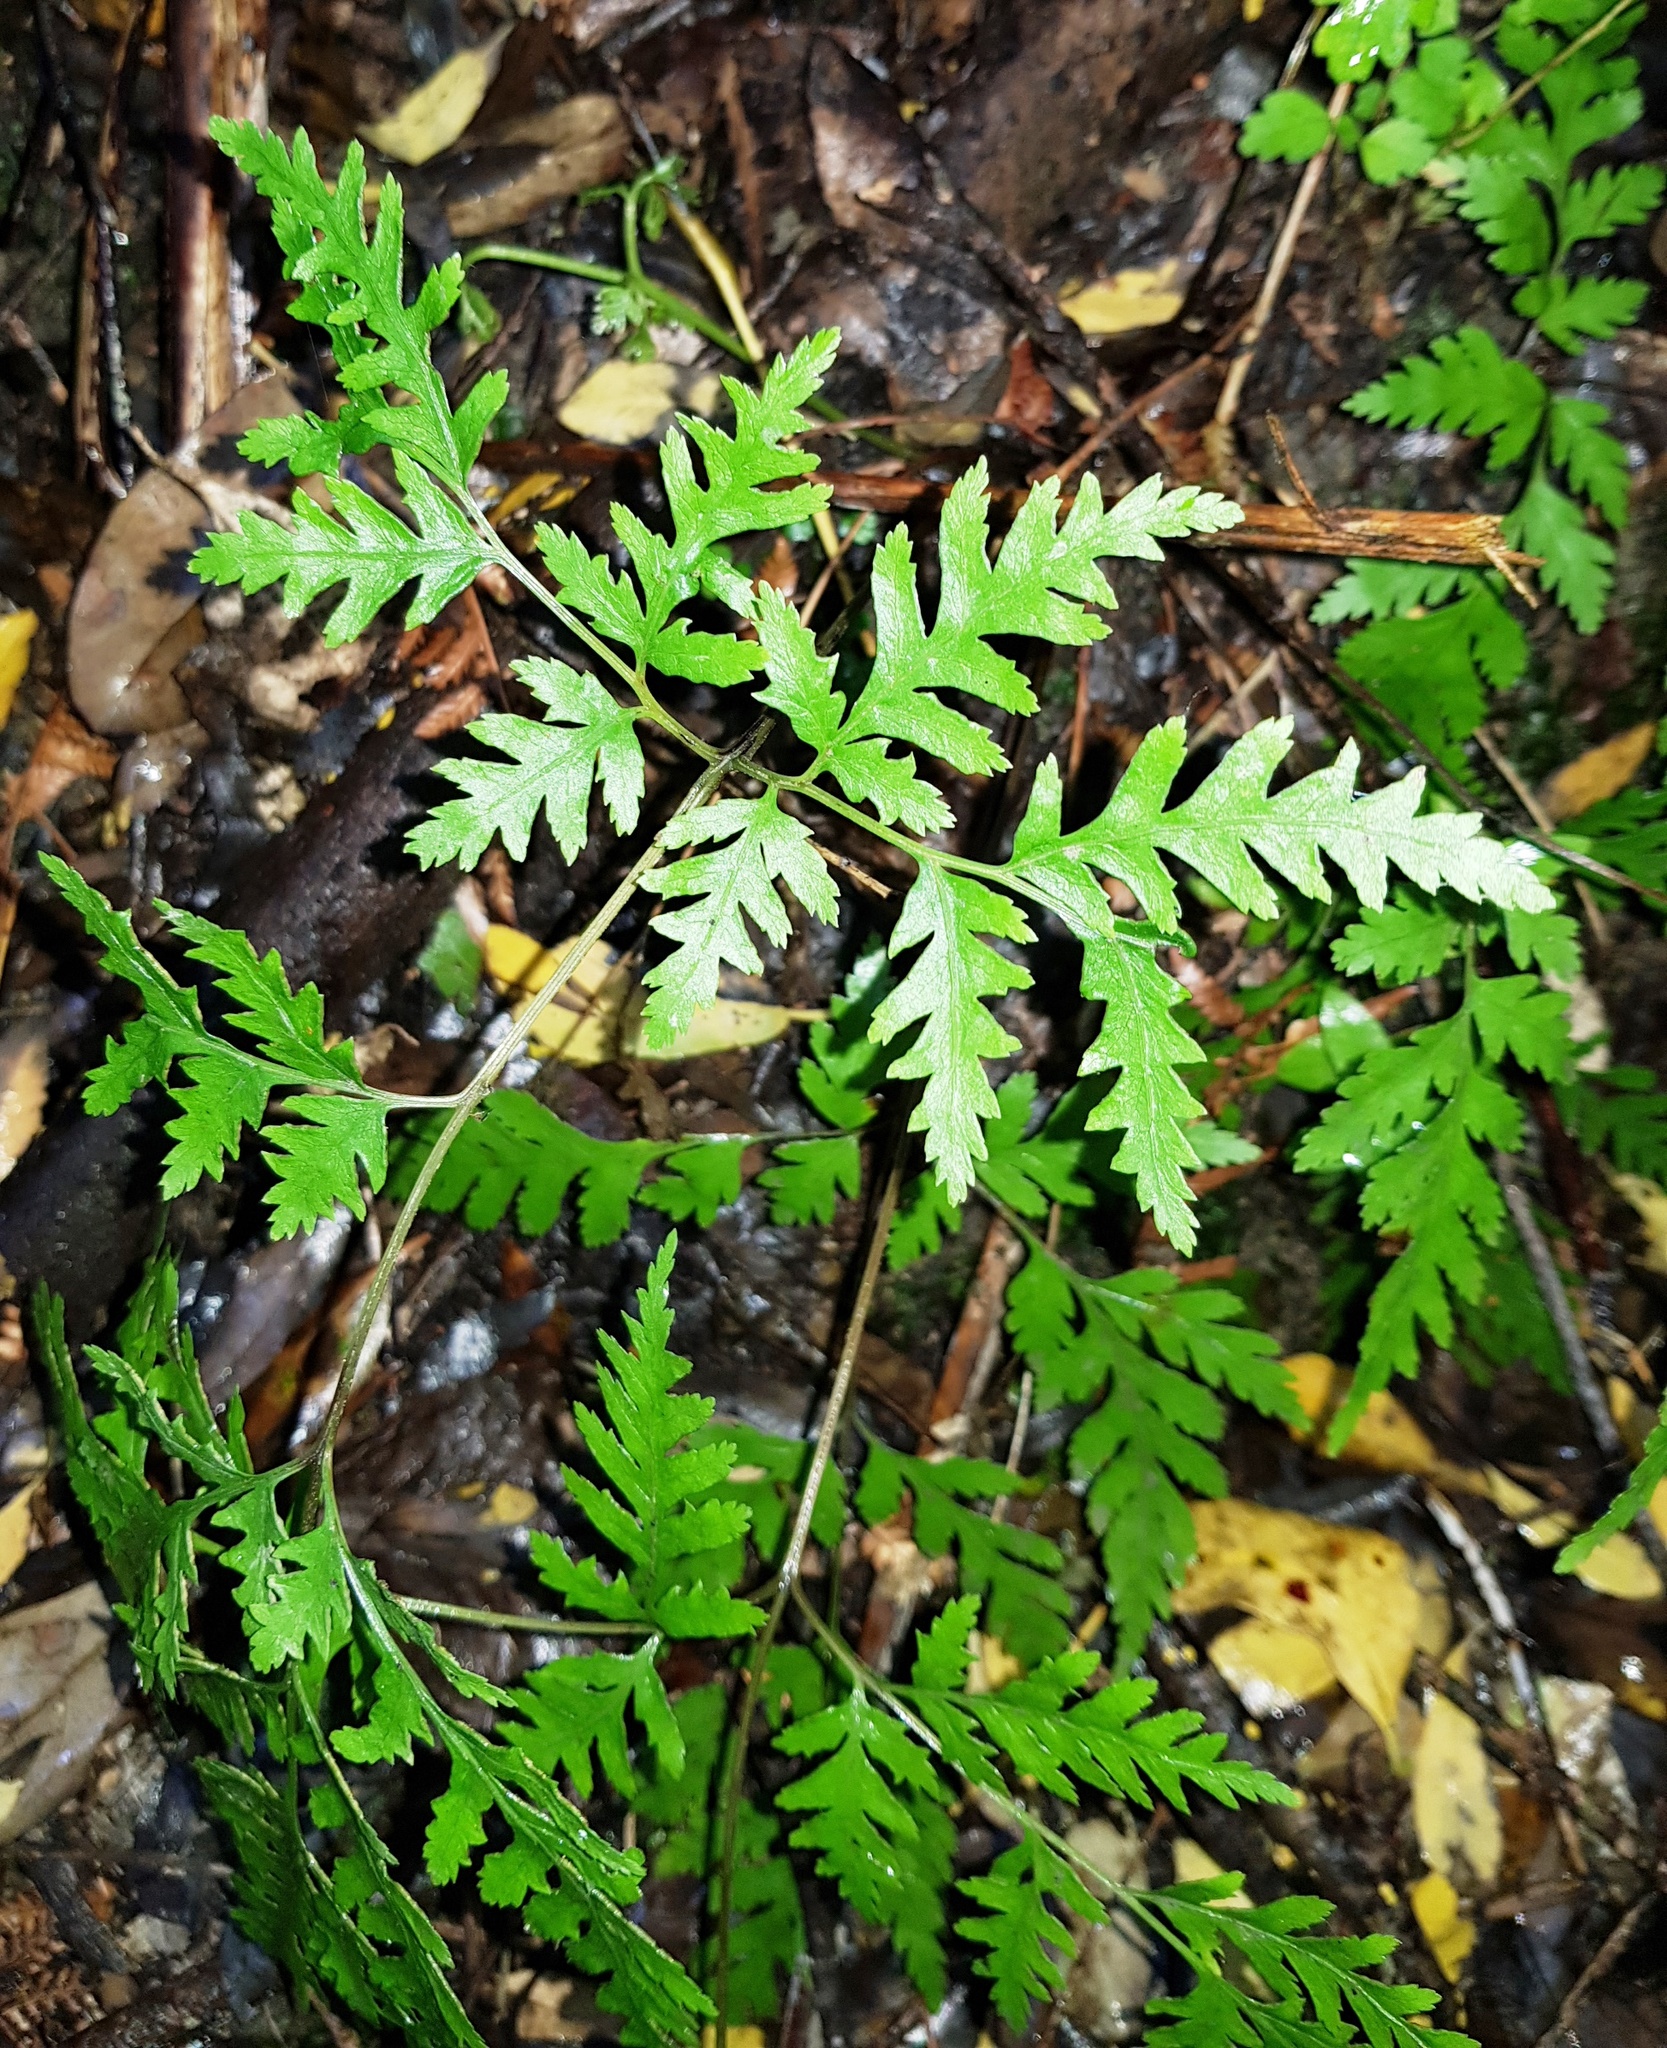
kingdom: Plantae
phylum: Tracheophyta
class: Polypodiopsida
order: Polypodiales
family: Pteridaceae
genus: Pteris
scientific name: Pteris macilenta
